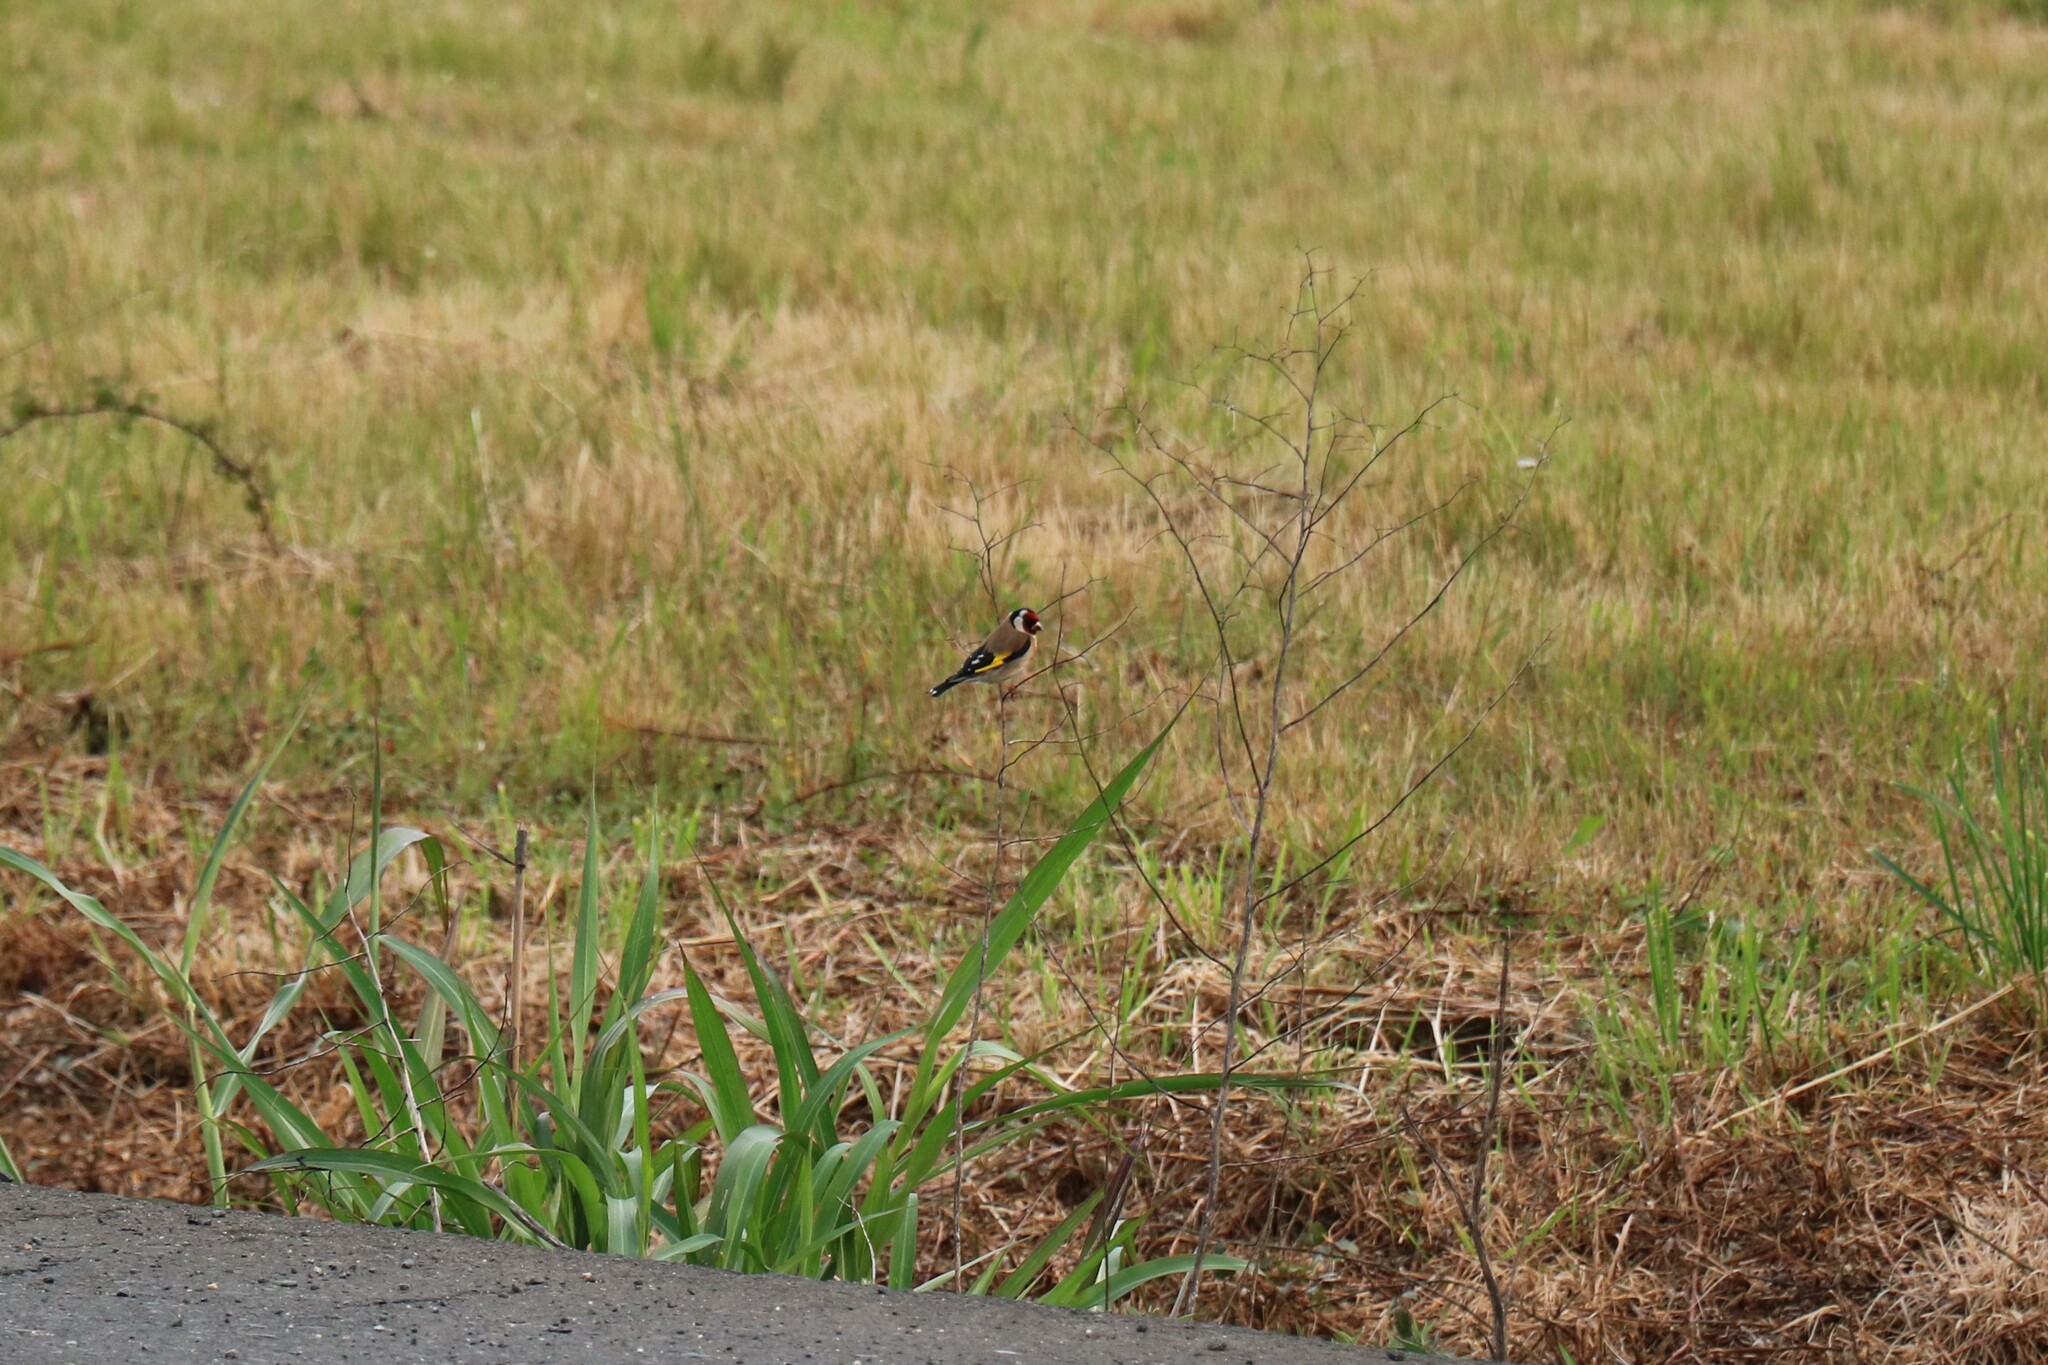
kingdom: Animalia
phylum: Chordata
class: Aves
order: Passeriformes
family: Fringillidae
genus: Carduelis
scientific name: Carduelis carduelis
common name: European goldfinch
